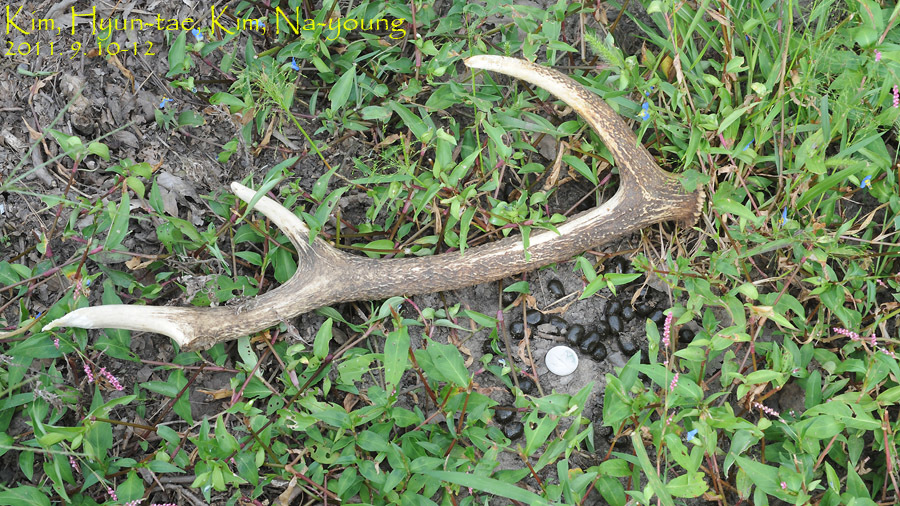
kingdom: Animalia
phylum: Chordata
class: Mammalia
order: Artiodactyla
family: Cervidae
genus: Cervus
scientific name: Cervus nippon
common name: Sika deer
